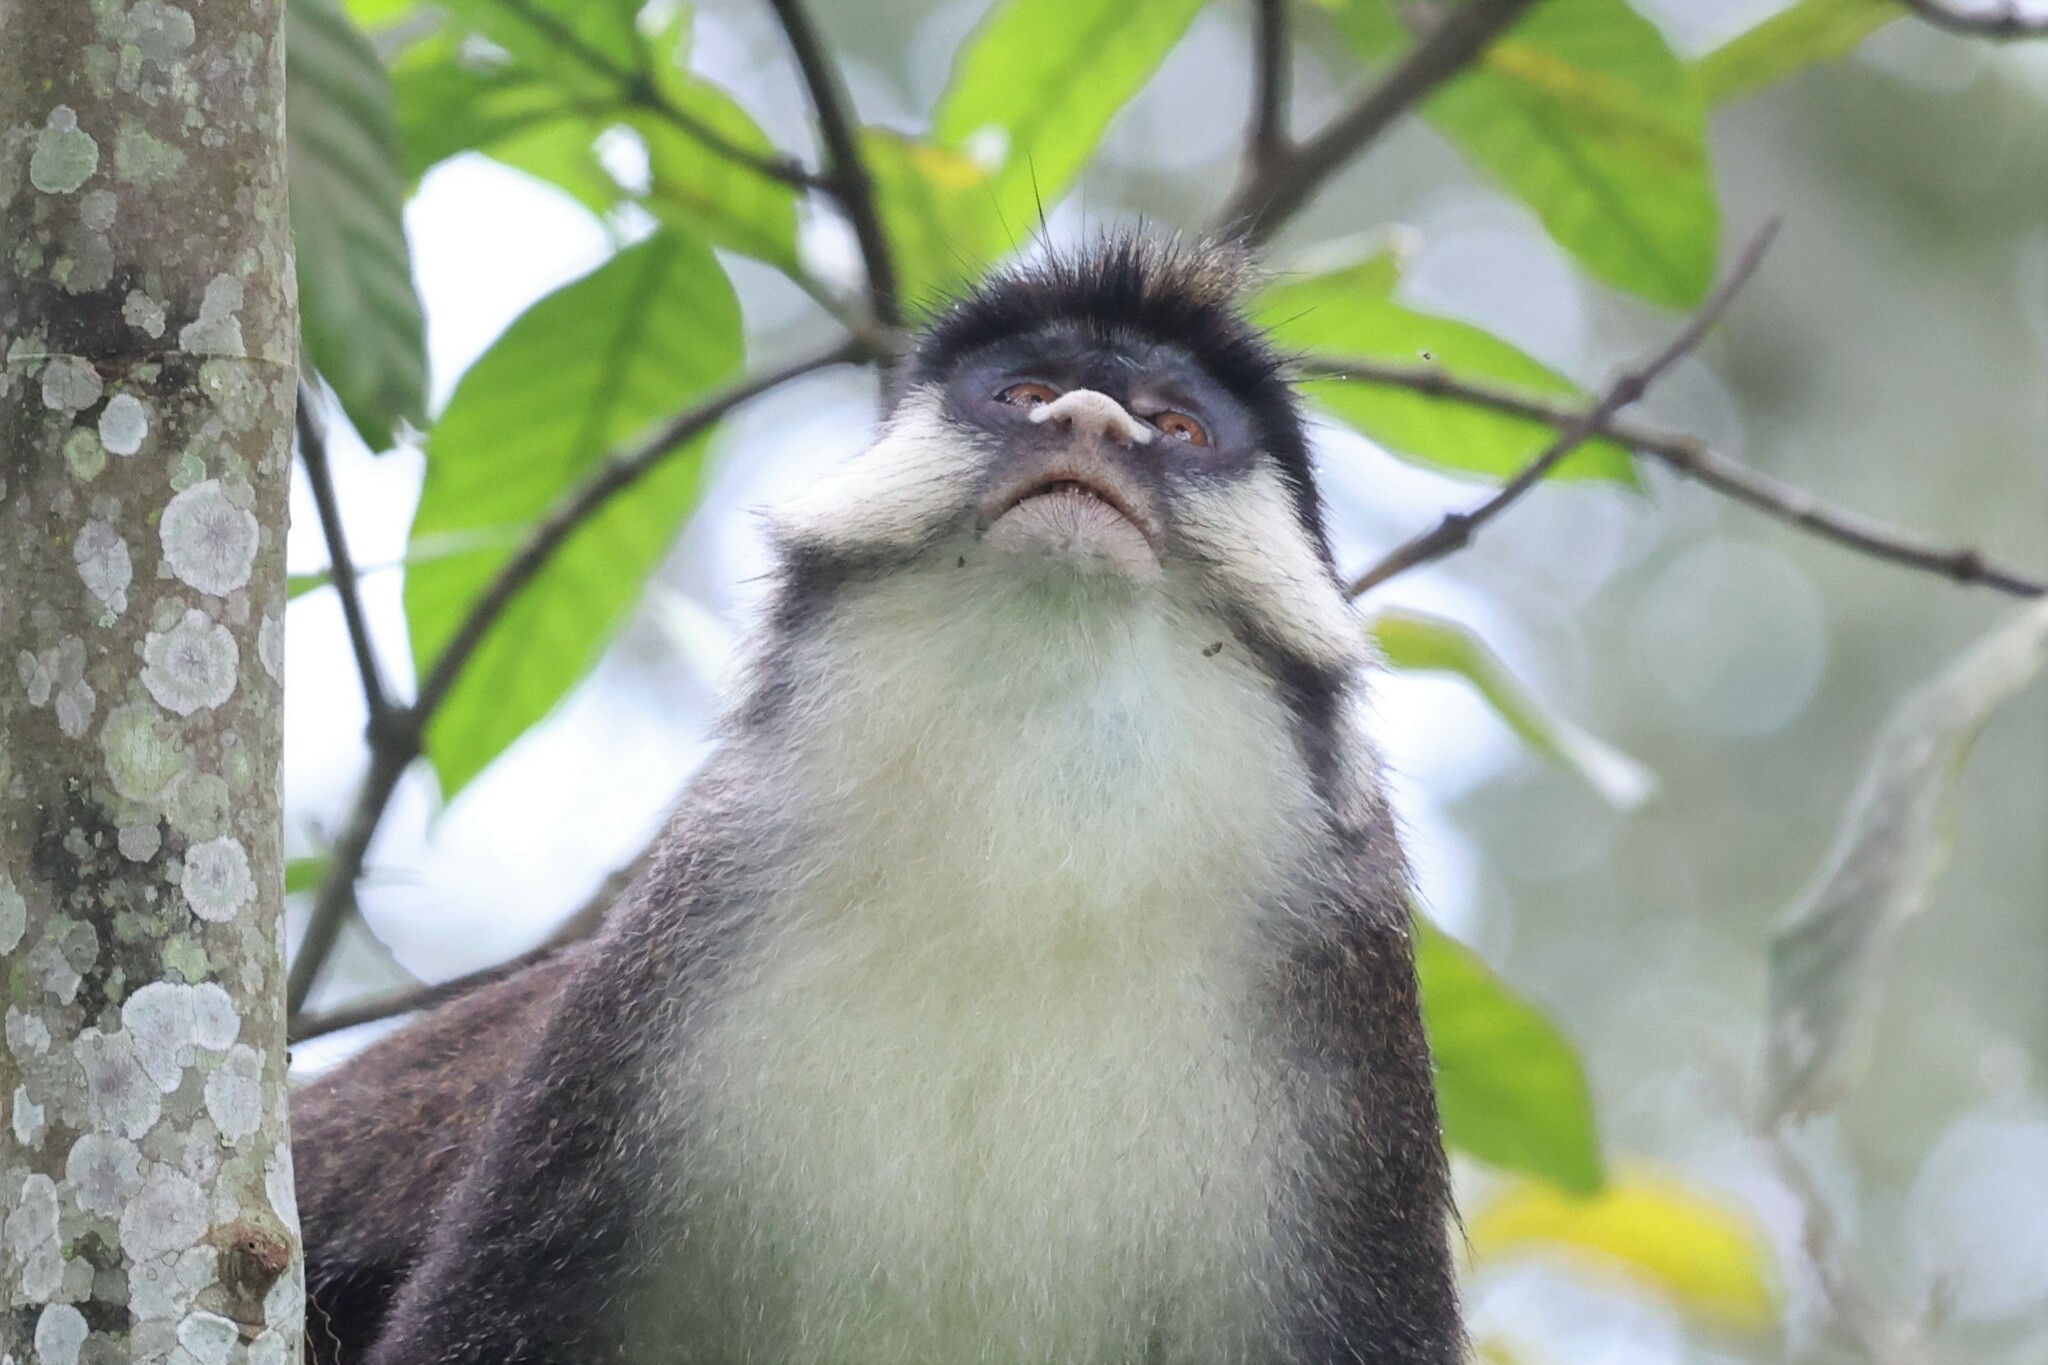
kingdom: Animalia
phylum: Chordata
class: Mammalia
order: Primates
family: Cercopithecidae
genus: Cercopithecus
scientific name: Cercopithecus ascanius
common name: Red-tailed monkey
